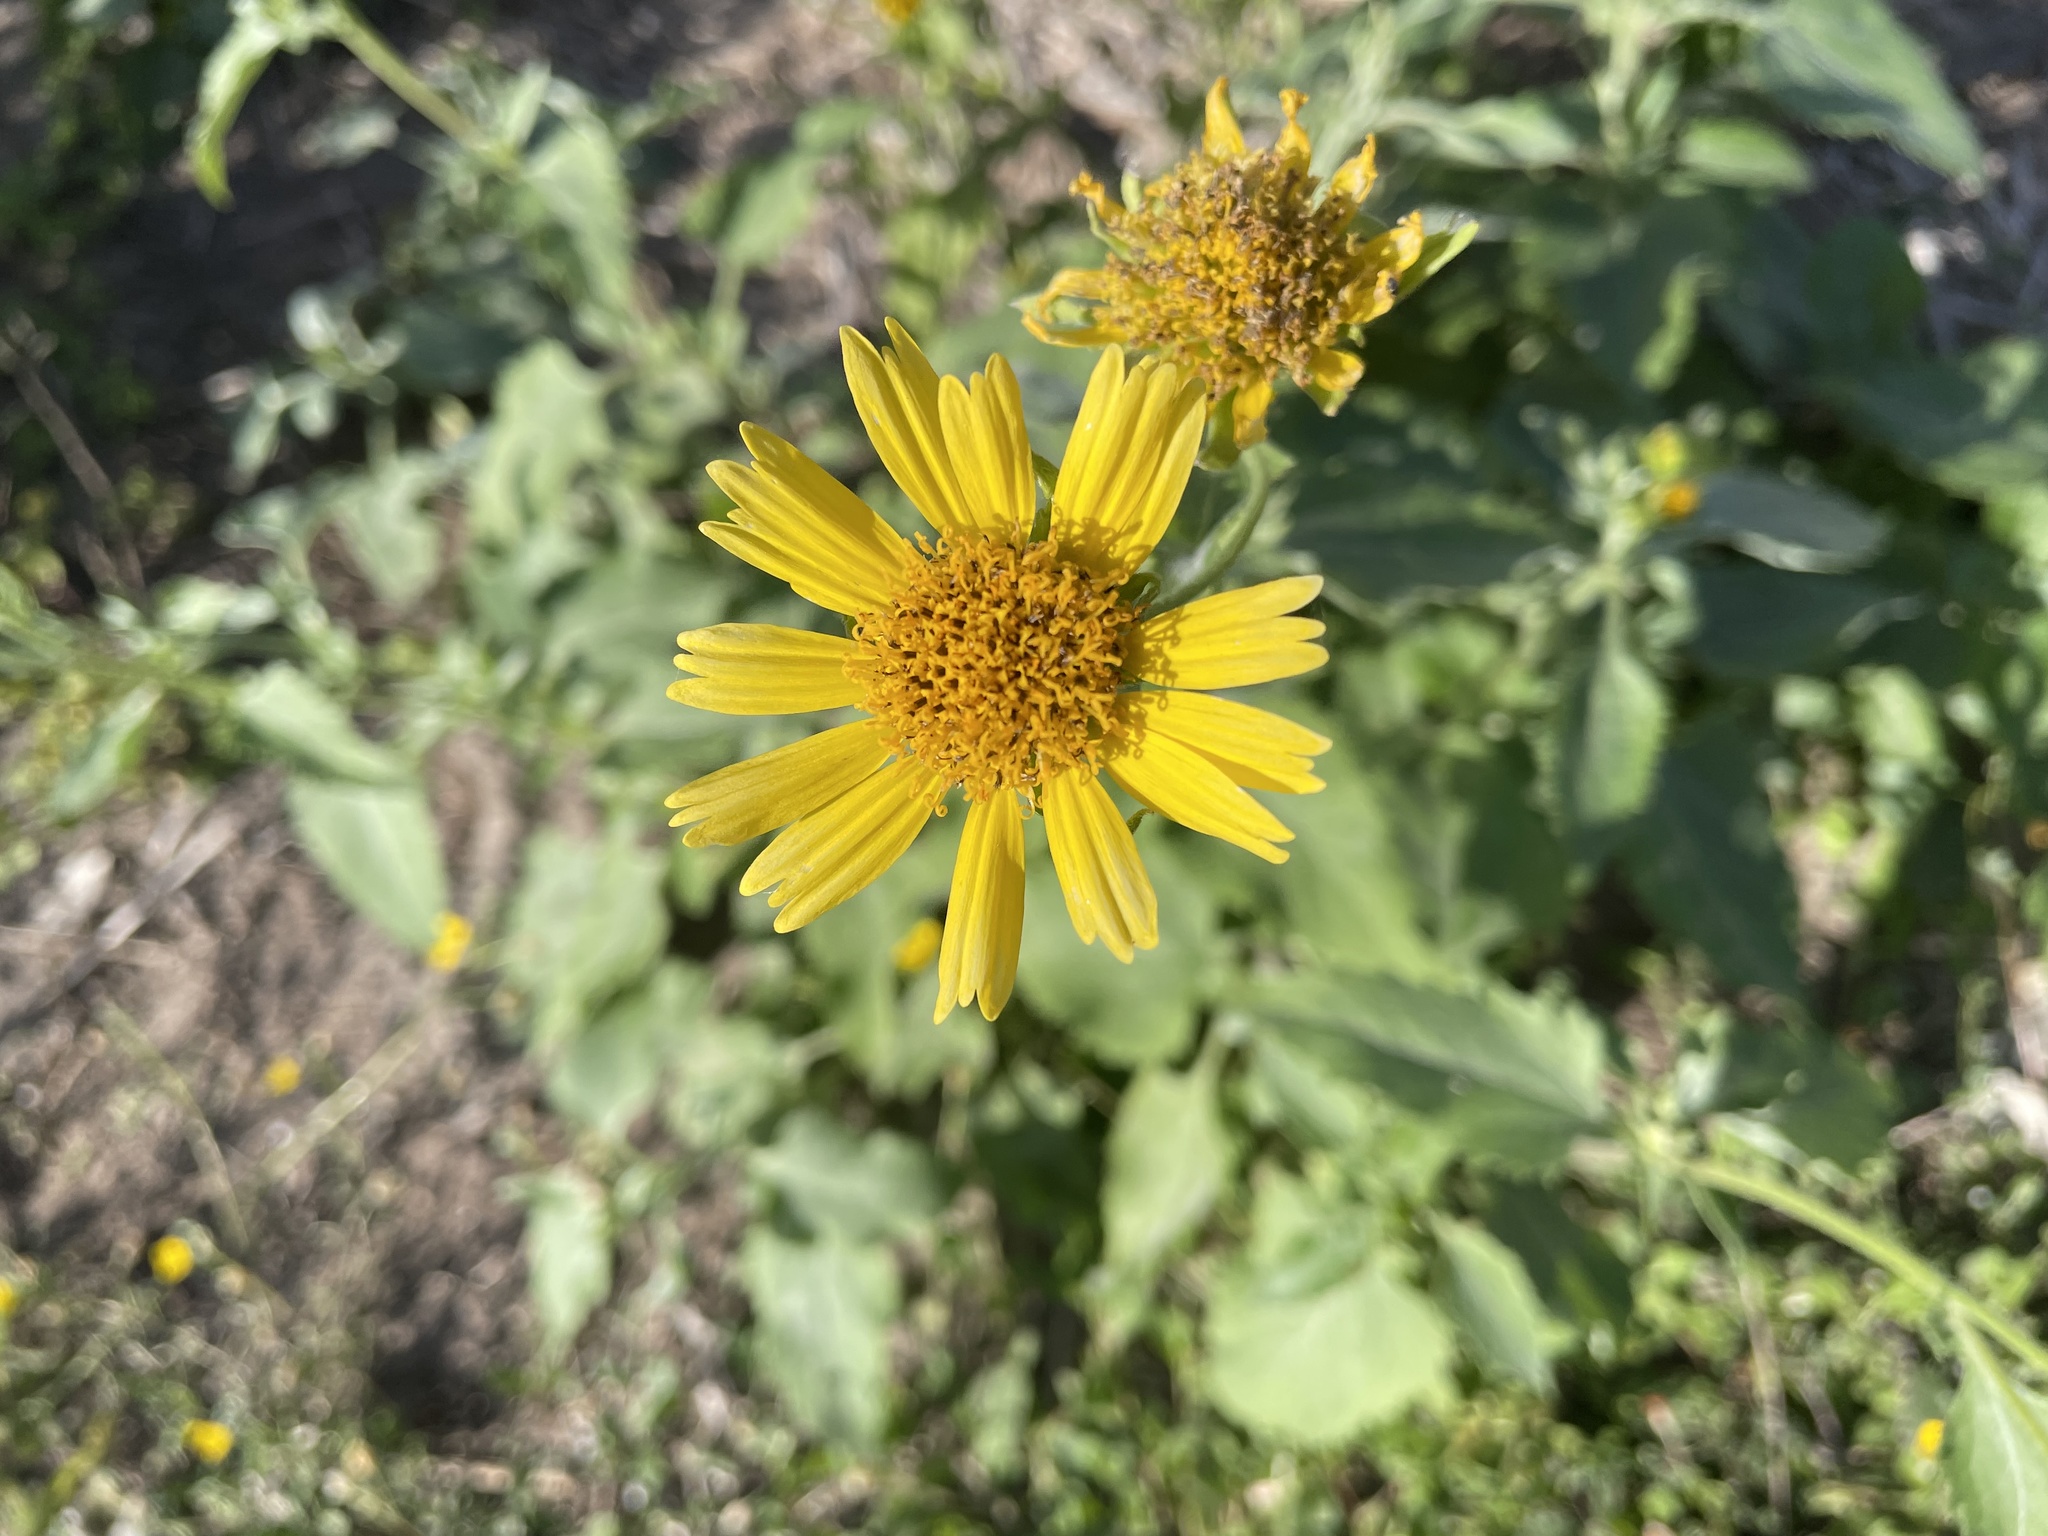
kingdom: Plantae
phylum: Tracheophyta
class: Magnoliopsida
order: Asterales
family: Asteraceae
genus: Verbesina
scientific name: Verbesina encelioides
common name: Golden crownbeard
